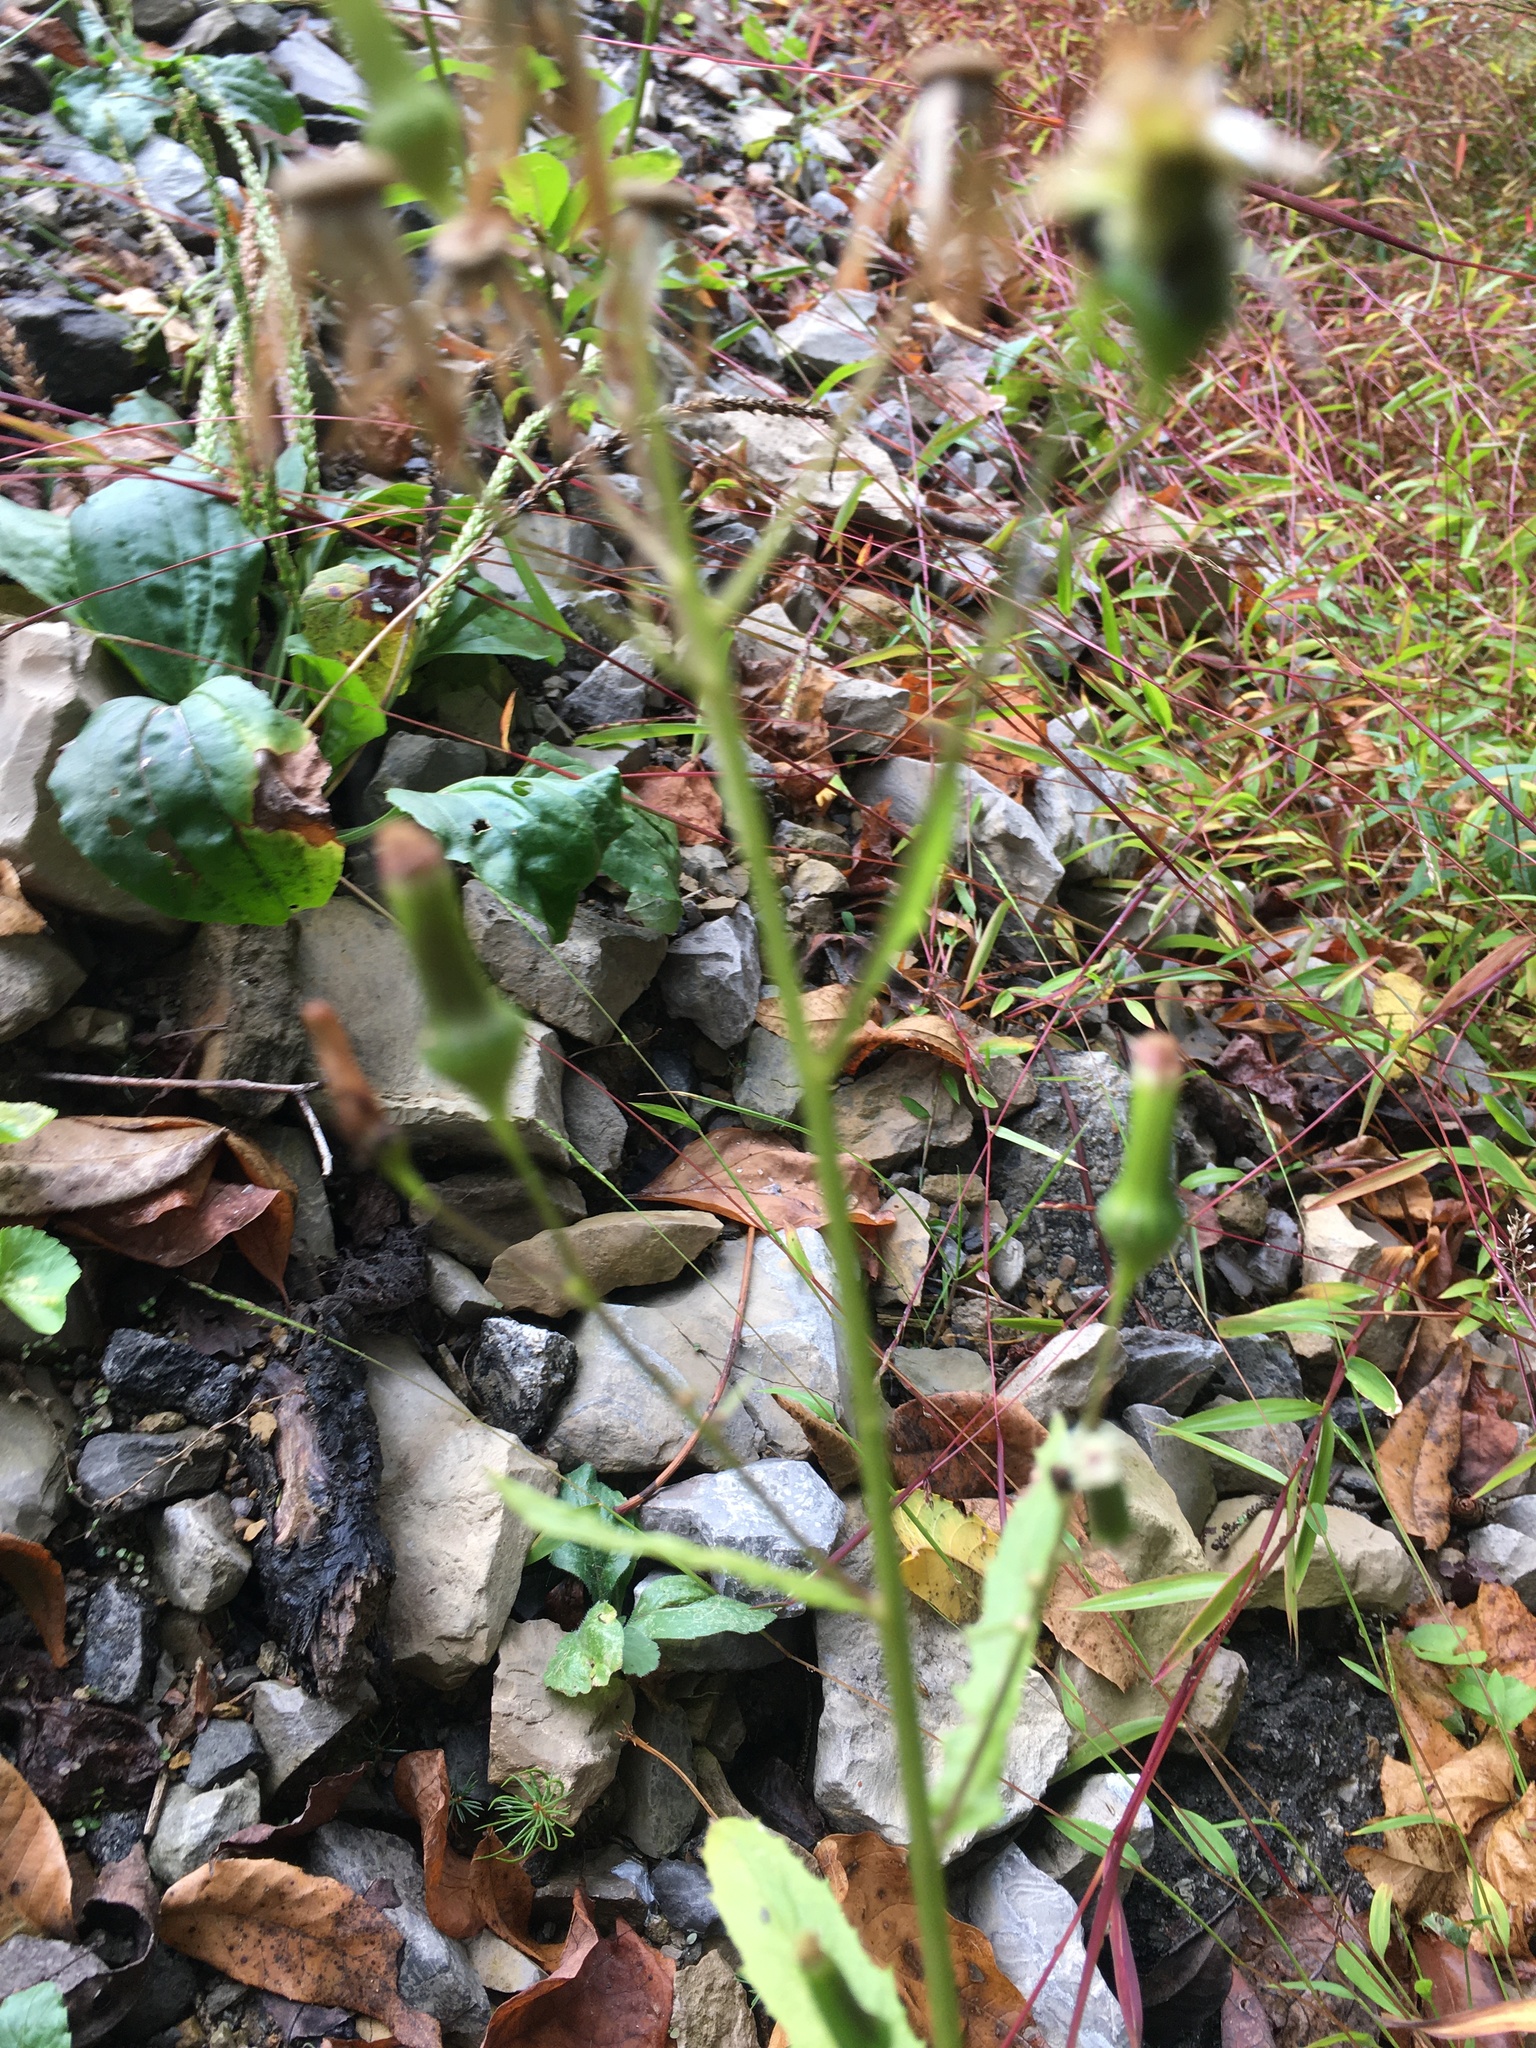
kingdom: Plantae
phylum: Tracheophyta
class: Magnoliopsida
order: Asterales
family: Asteraceae
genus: Erechtites
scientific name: Erechtites hieraciifolius
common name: American burnweed
